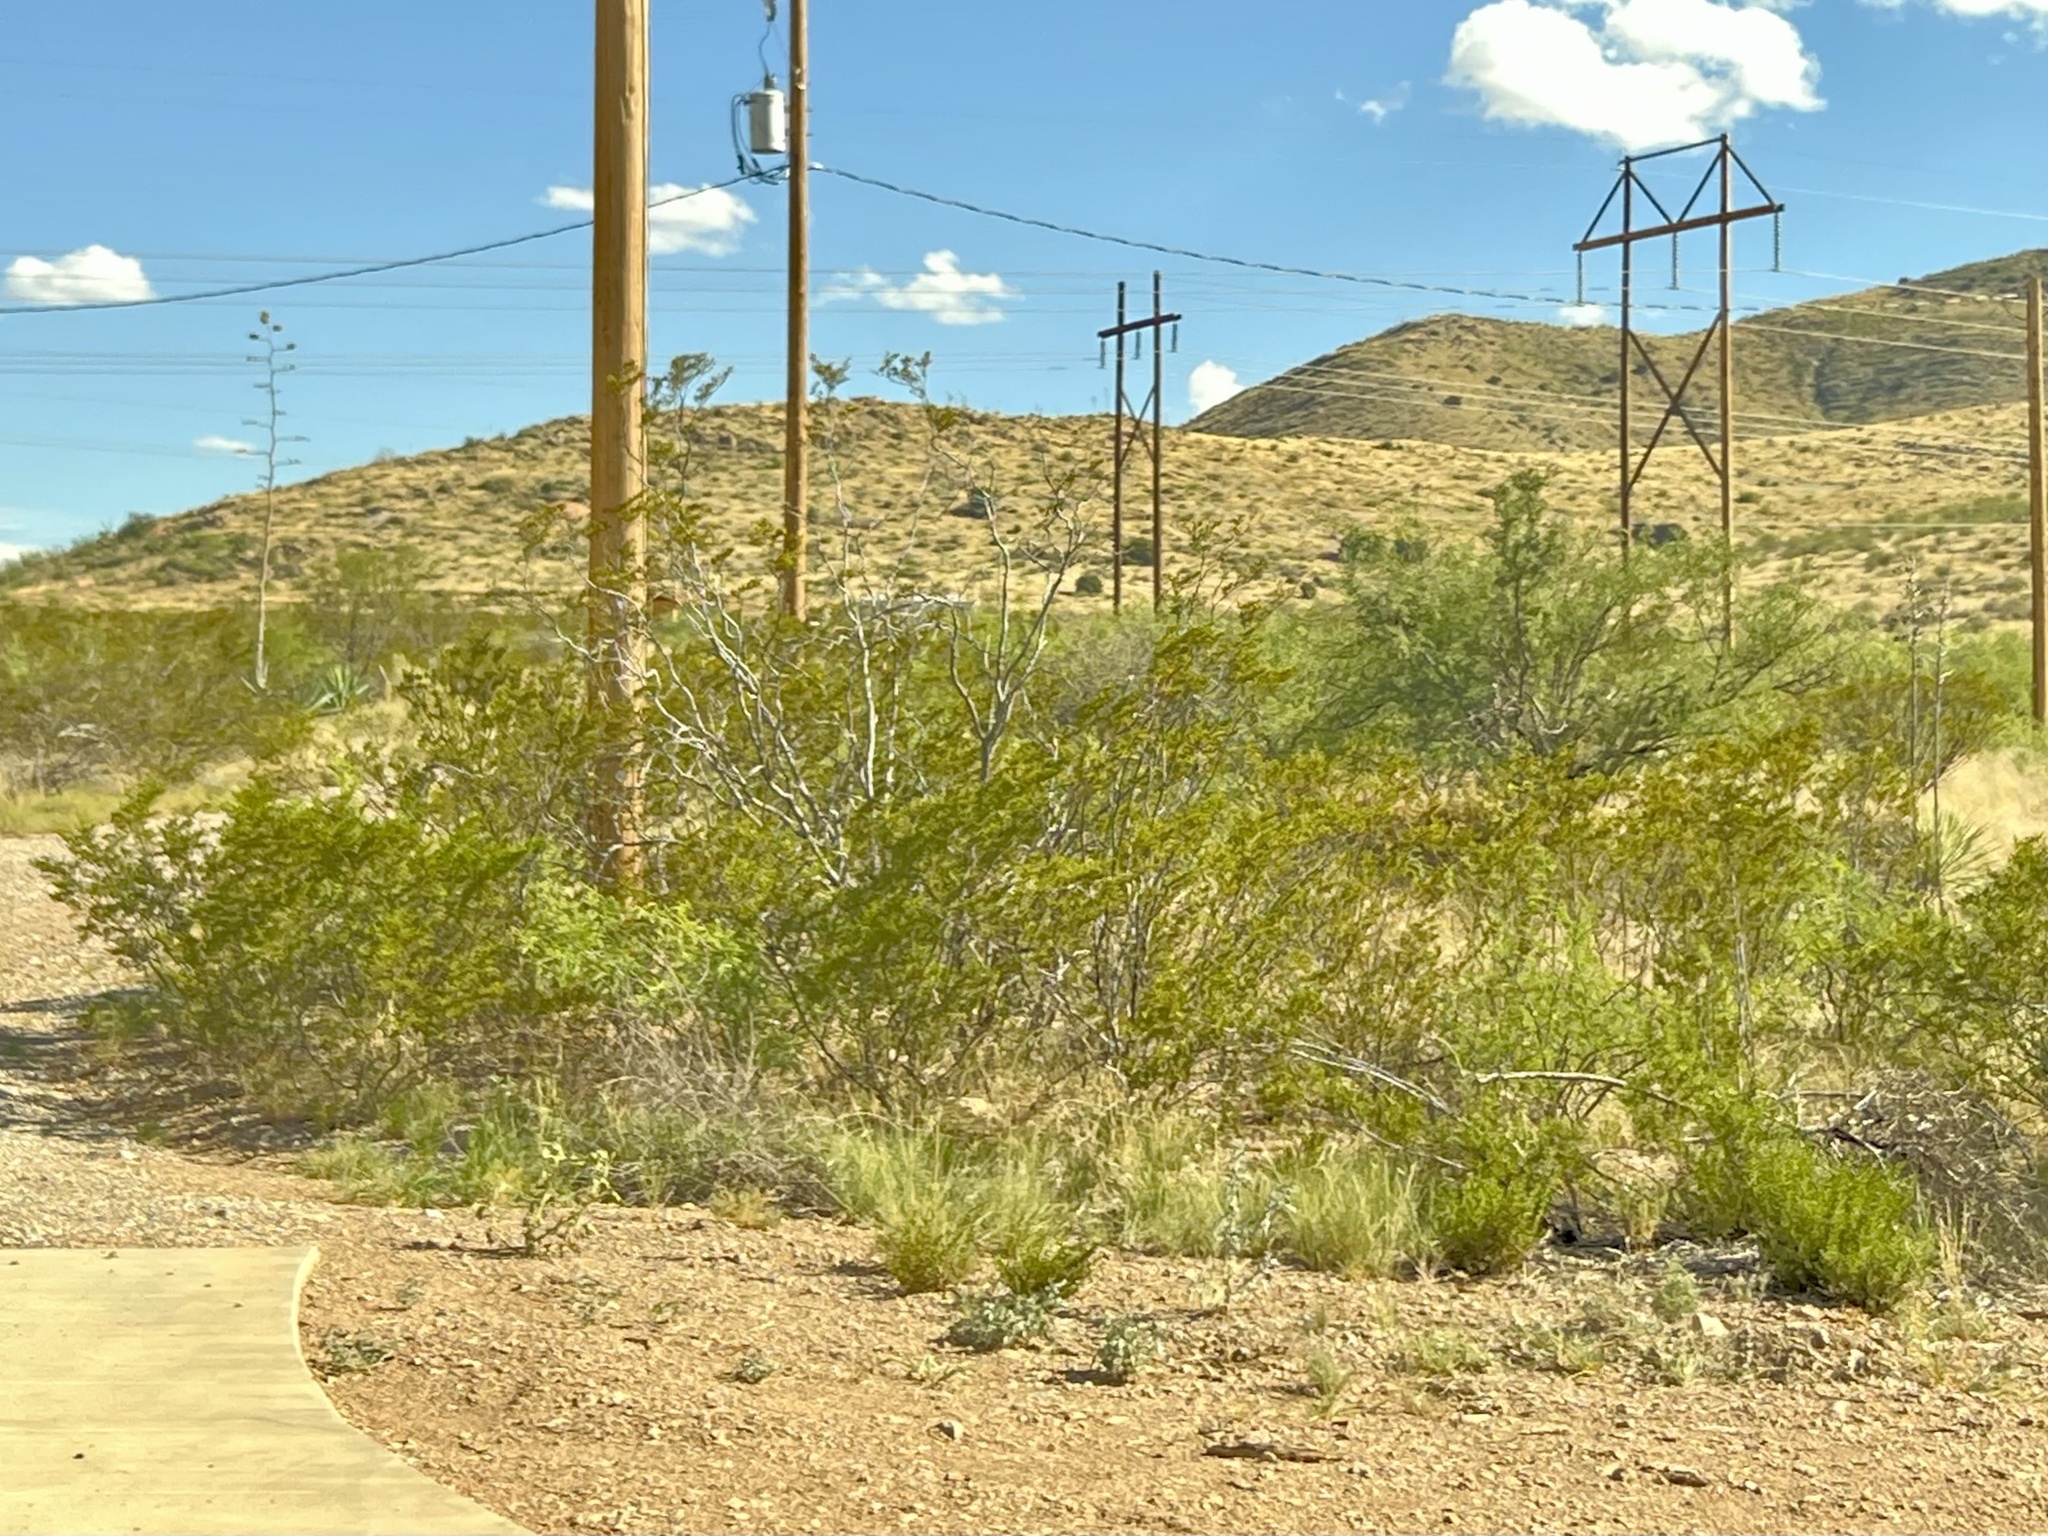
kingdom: Plantae
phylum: Tracheophyta
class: Magnoliopsida
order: Zygophyllales
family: Zygophyllaceae
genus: Larrea
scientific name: Larrea tridentata
